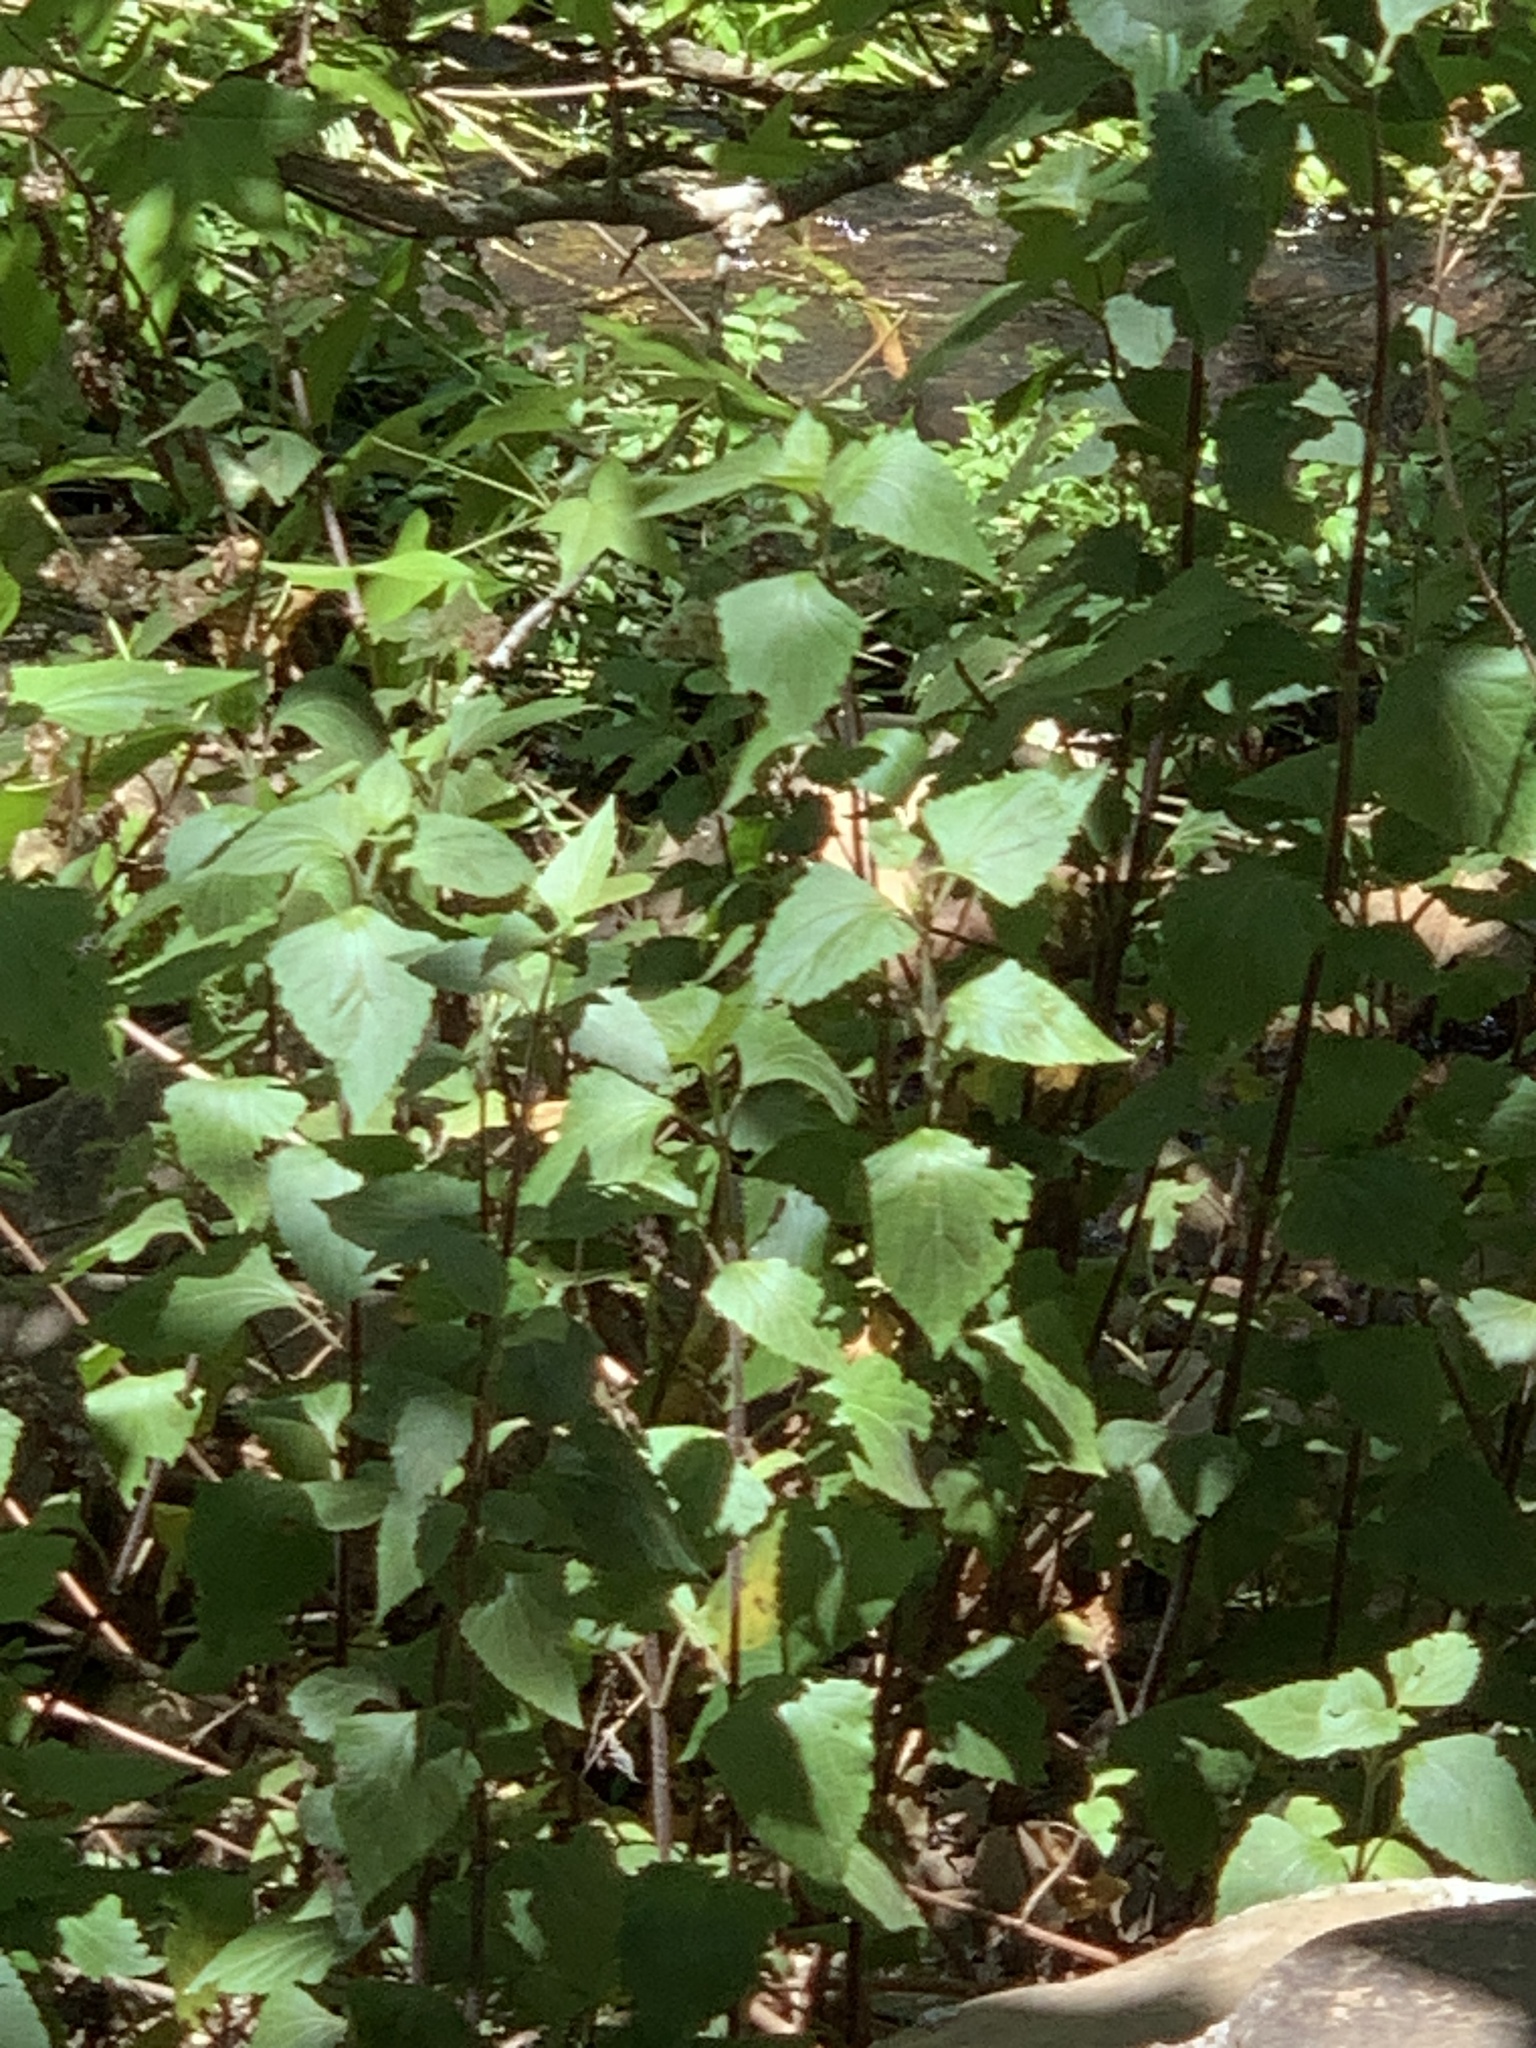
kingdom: Plantae
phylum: Tracheophyta
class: Magnoliopsida
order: Asterales
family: Asteraceae
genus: Ageratina
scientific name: Ageratina adenophora
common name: Sticky snakeroot
